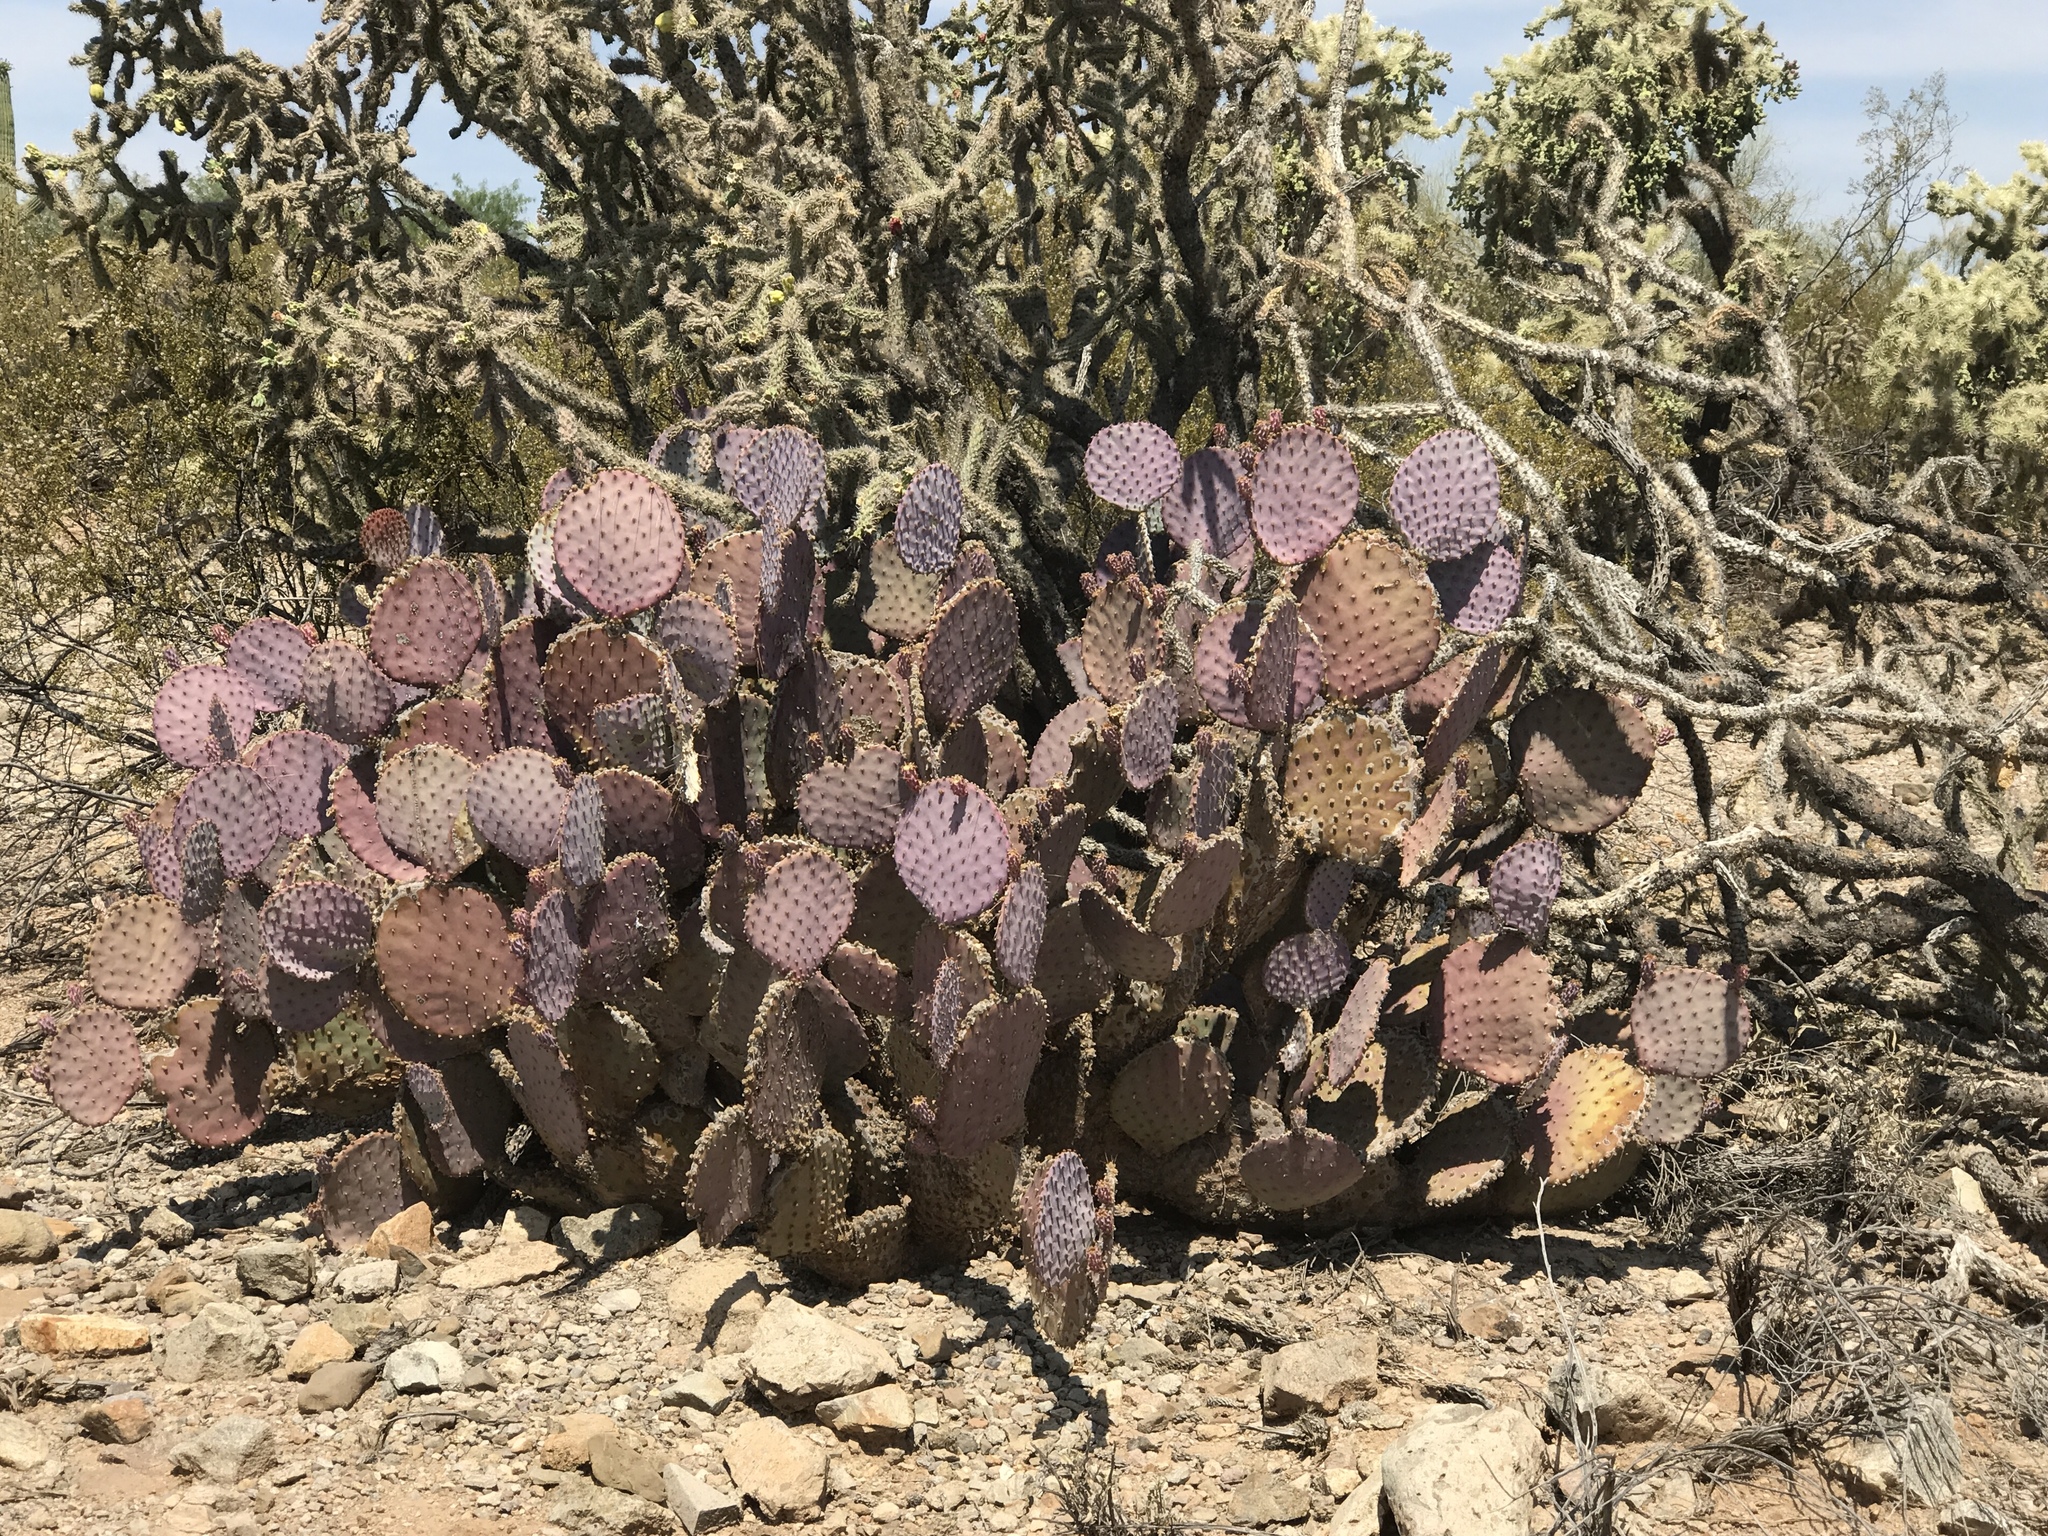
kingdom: Plantae
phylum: Tracheophyta
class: Magnoliopsida
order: Caryophyllales
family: Cactaceae
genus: Opuntia
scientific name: Opuntia gosseliniana
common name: Violet prickly-pear
